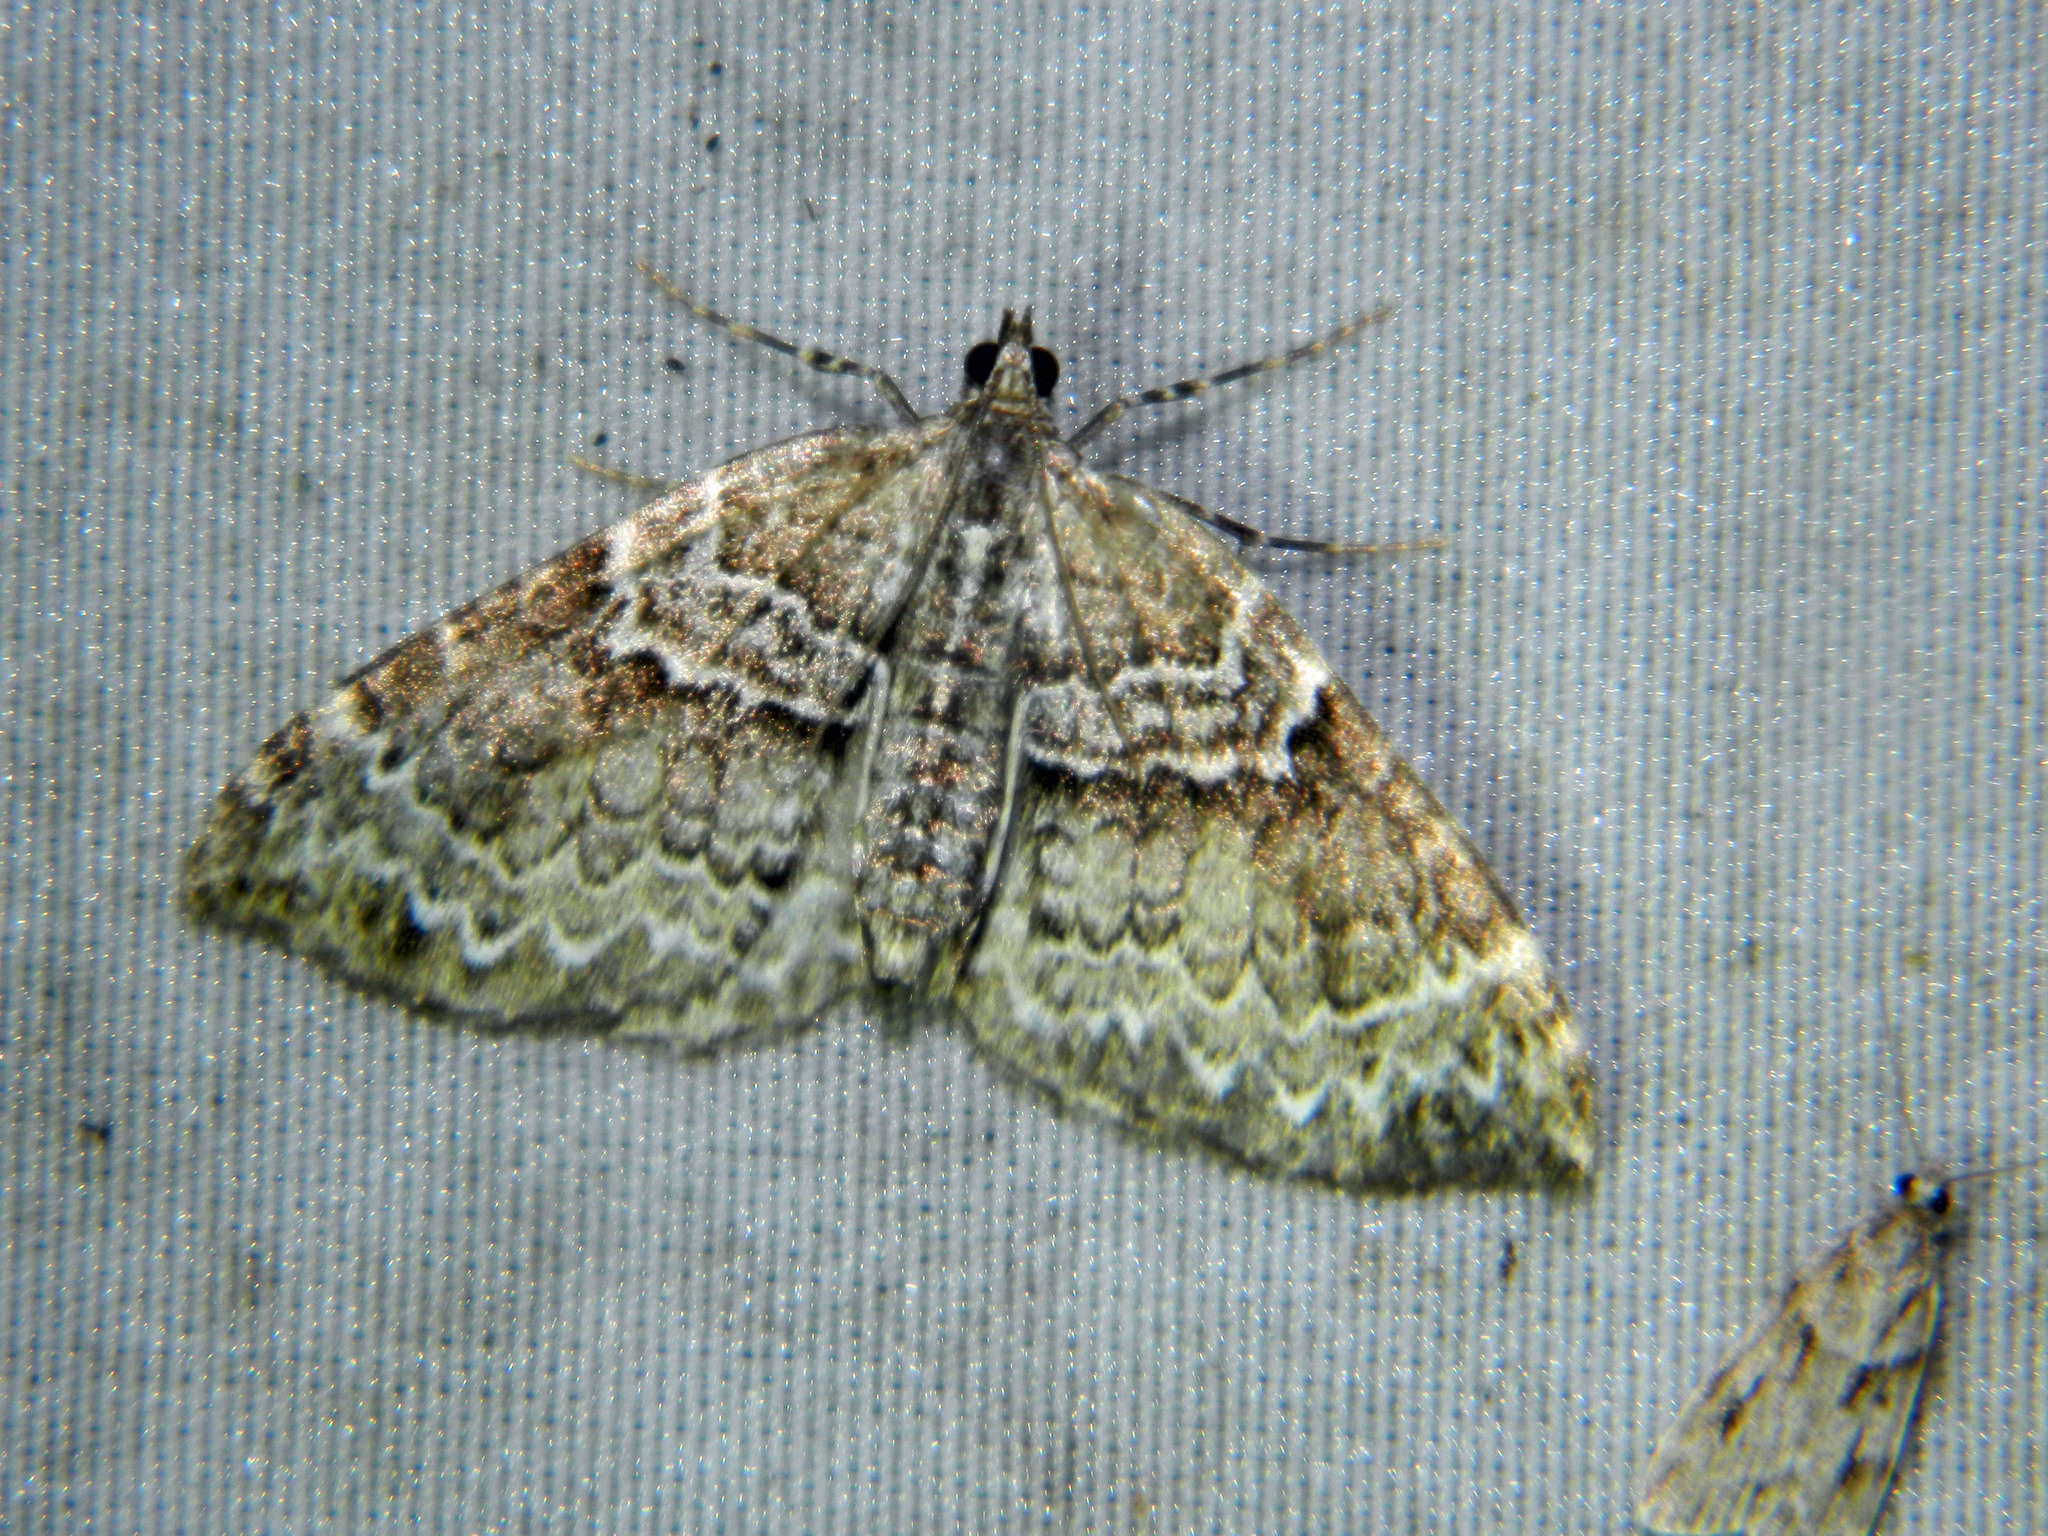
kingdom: Animalia
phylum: Arthropoda
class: Insecta
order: Lepidoptera
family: Geometridae
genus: Eulithis
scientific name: Eulithis explanata
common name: White eulithis
